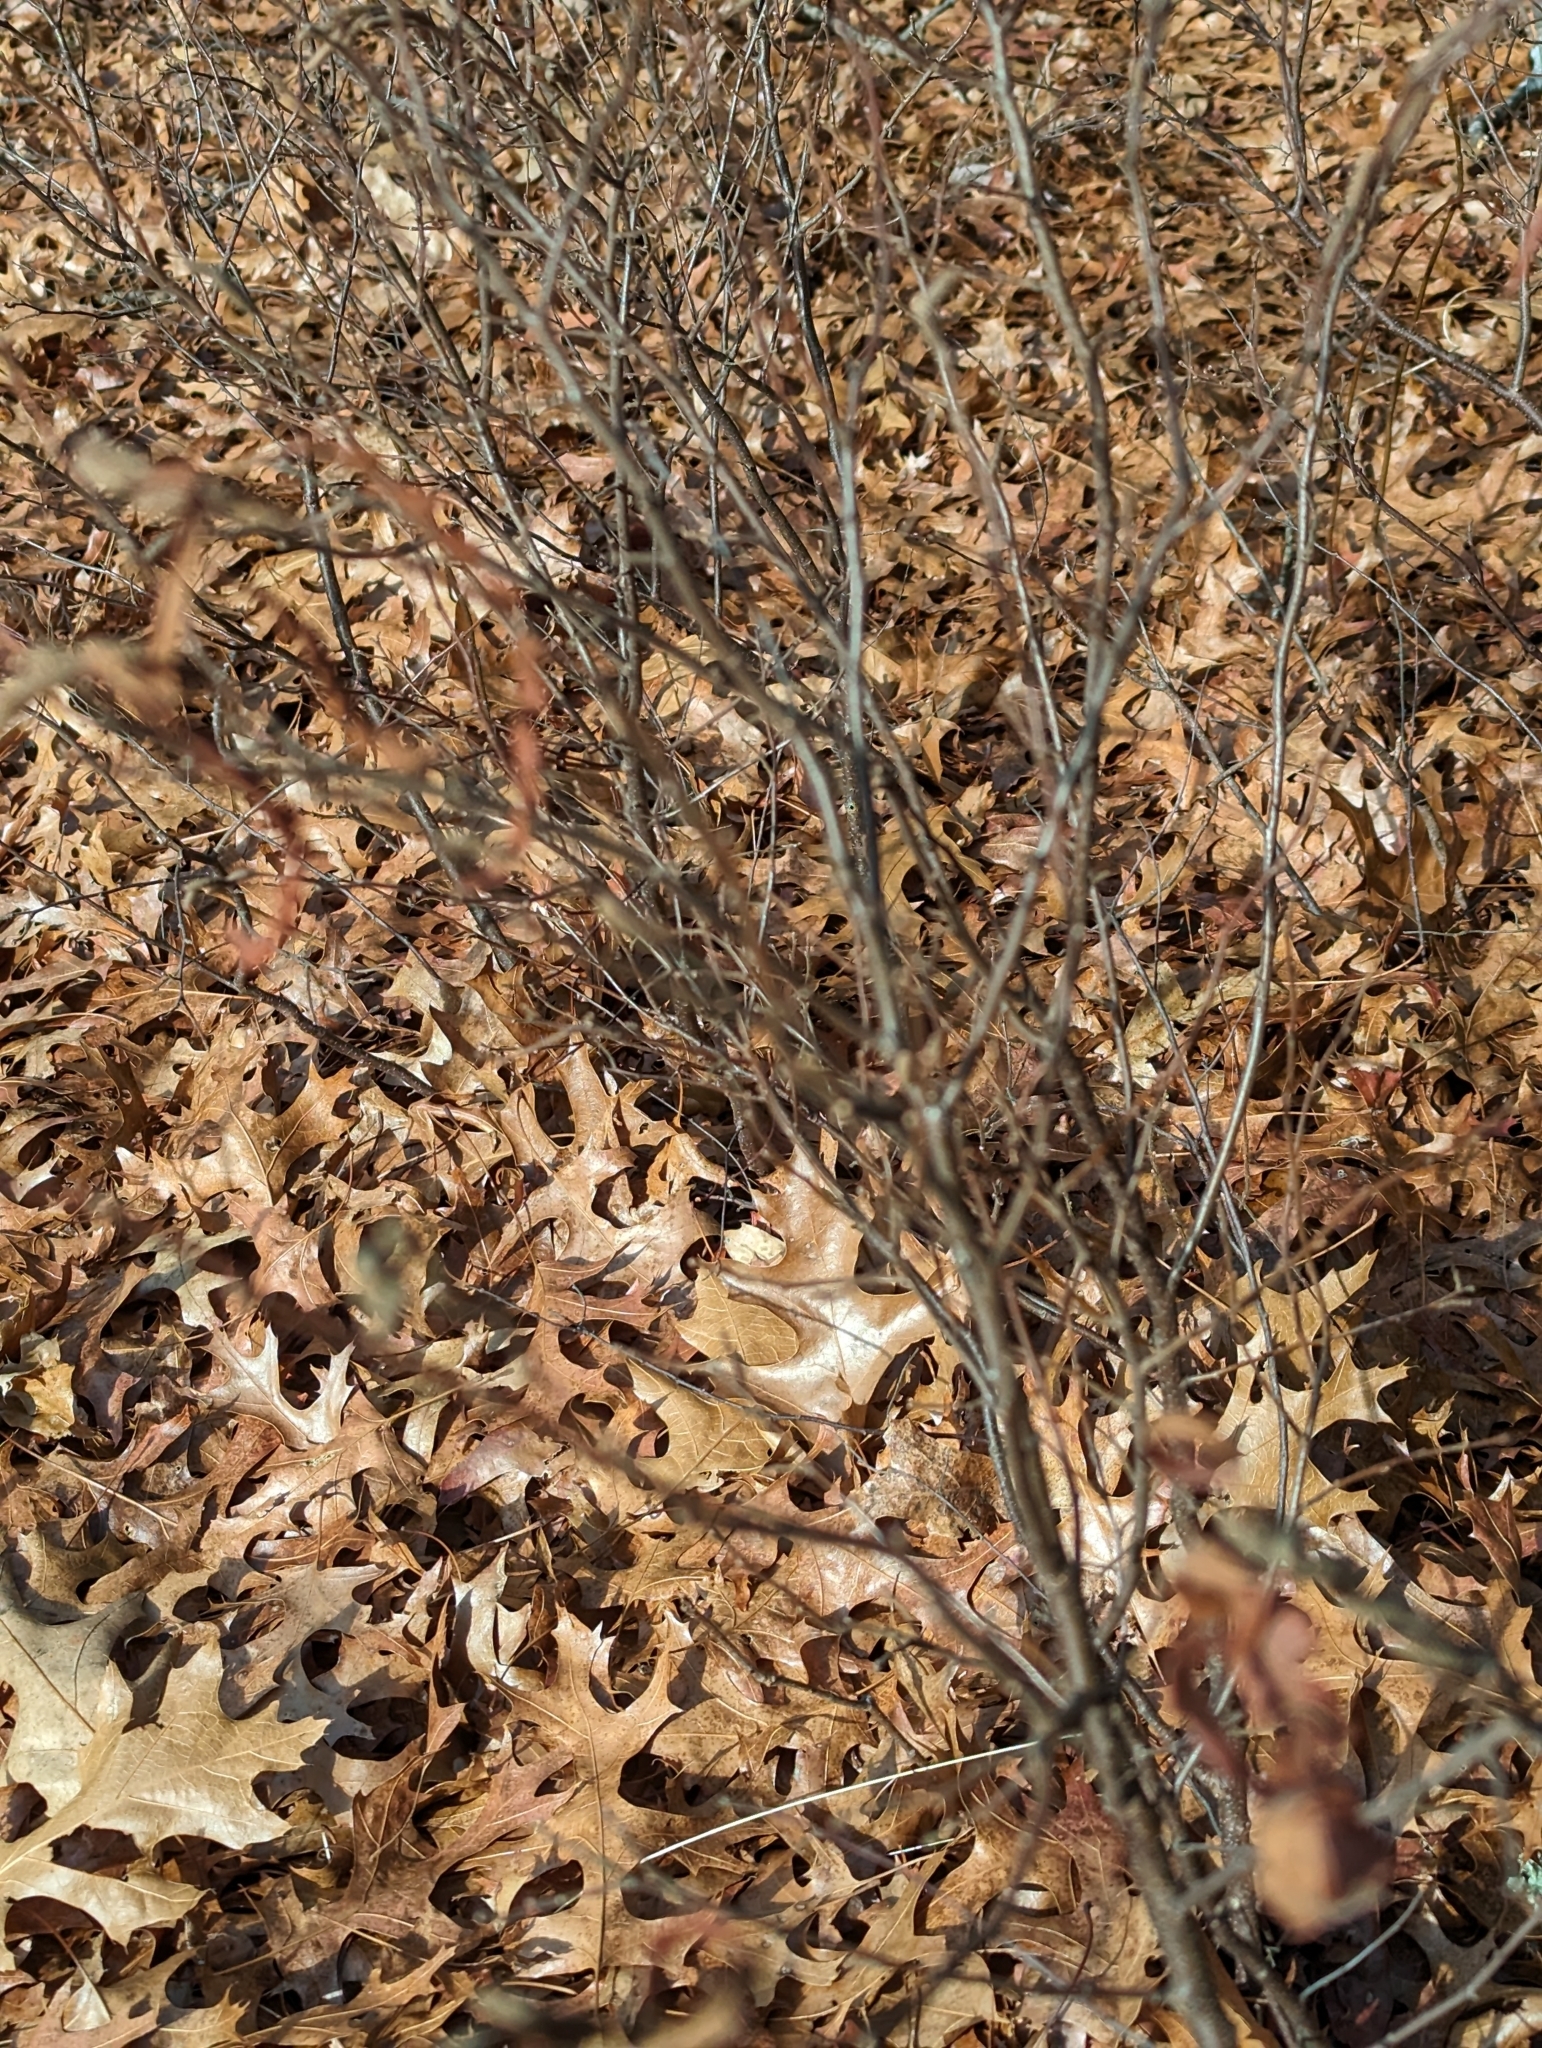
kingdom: Plantae
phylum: Tracheophyta
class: Magnoliopsida
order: Fagales
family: Myricaceae
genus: Comptonia
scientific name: Comptonia peregrina
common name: Sweet-fern
